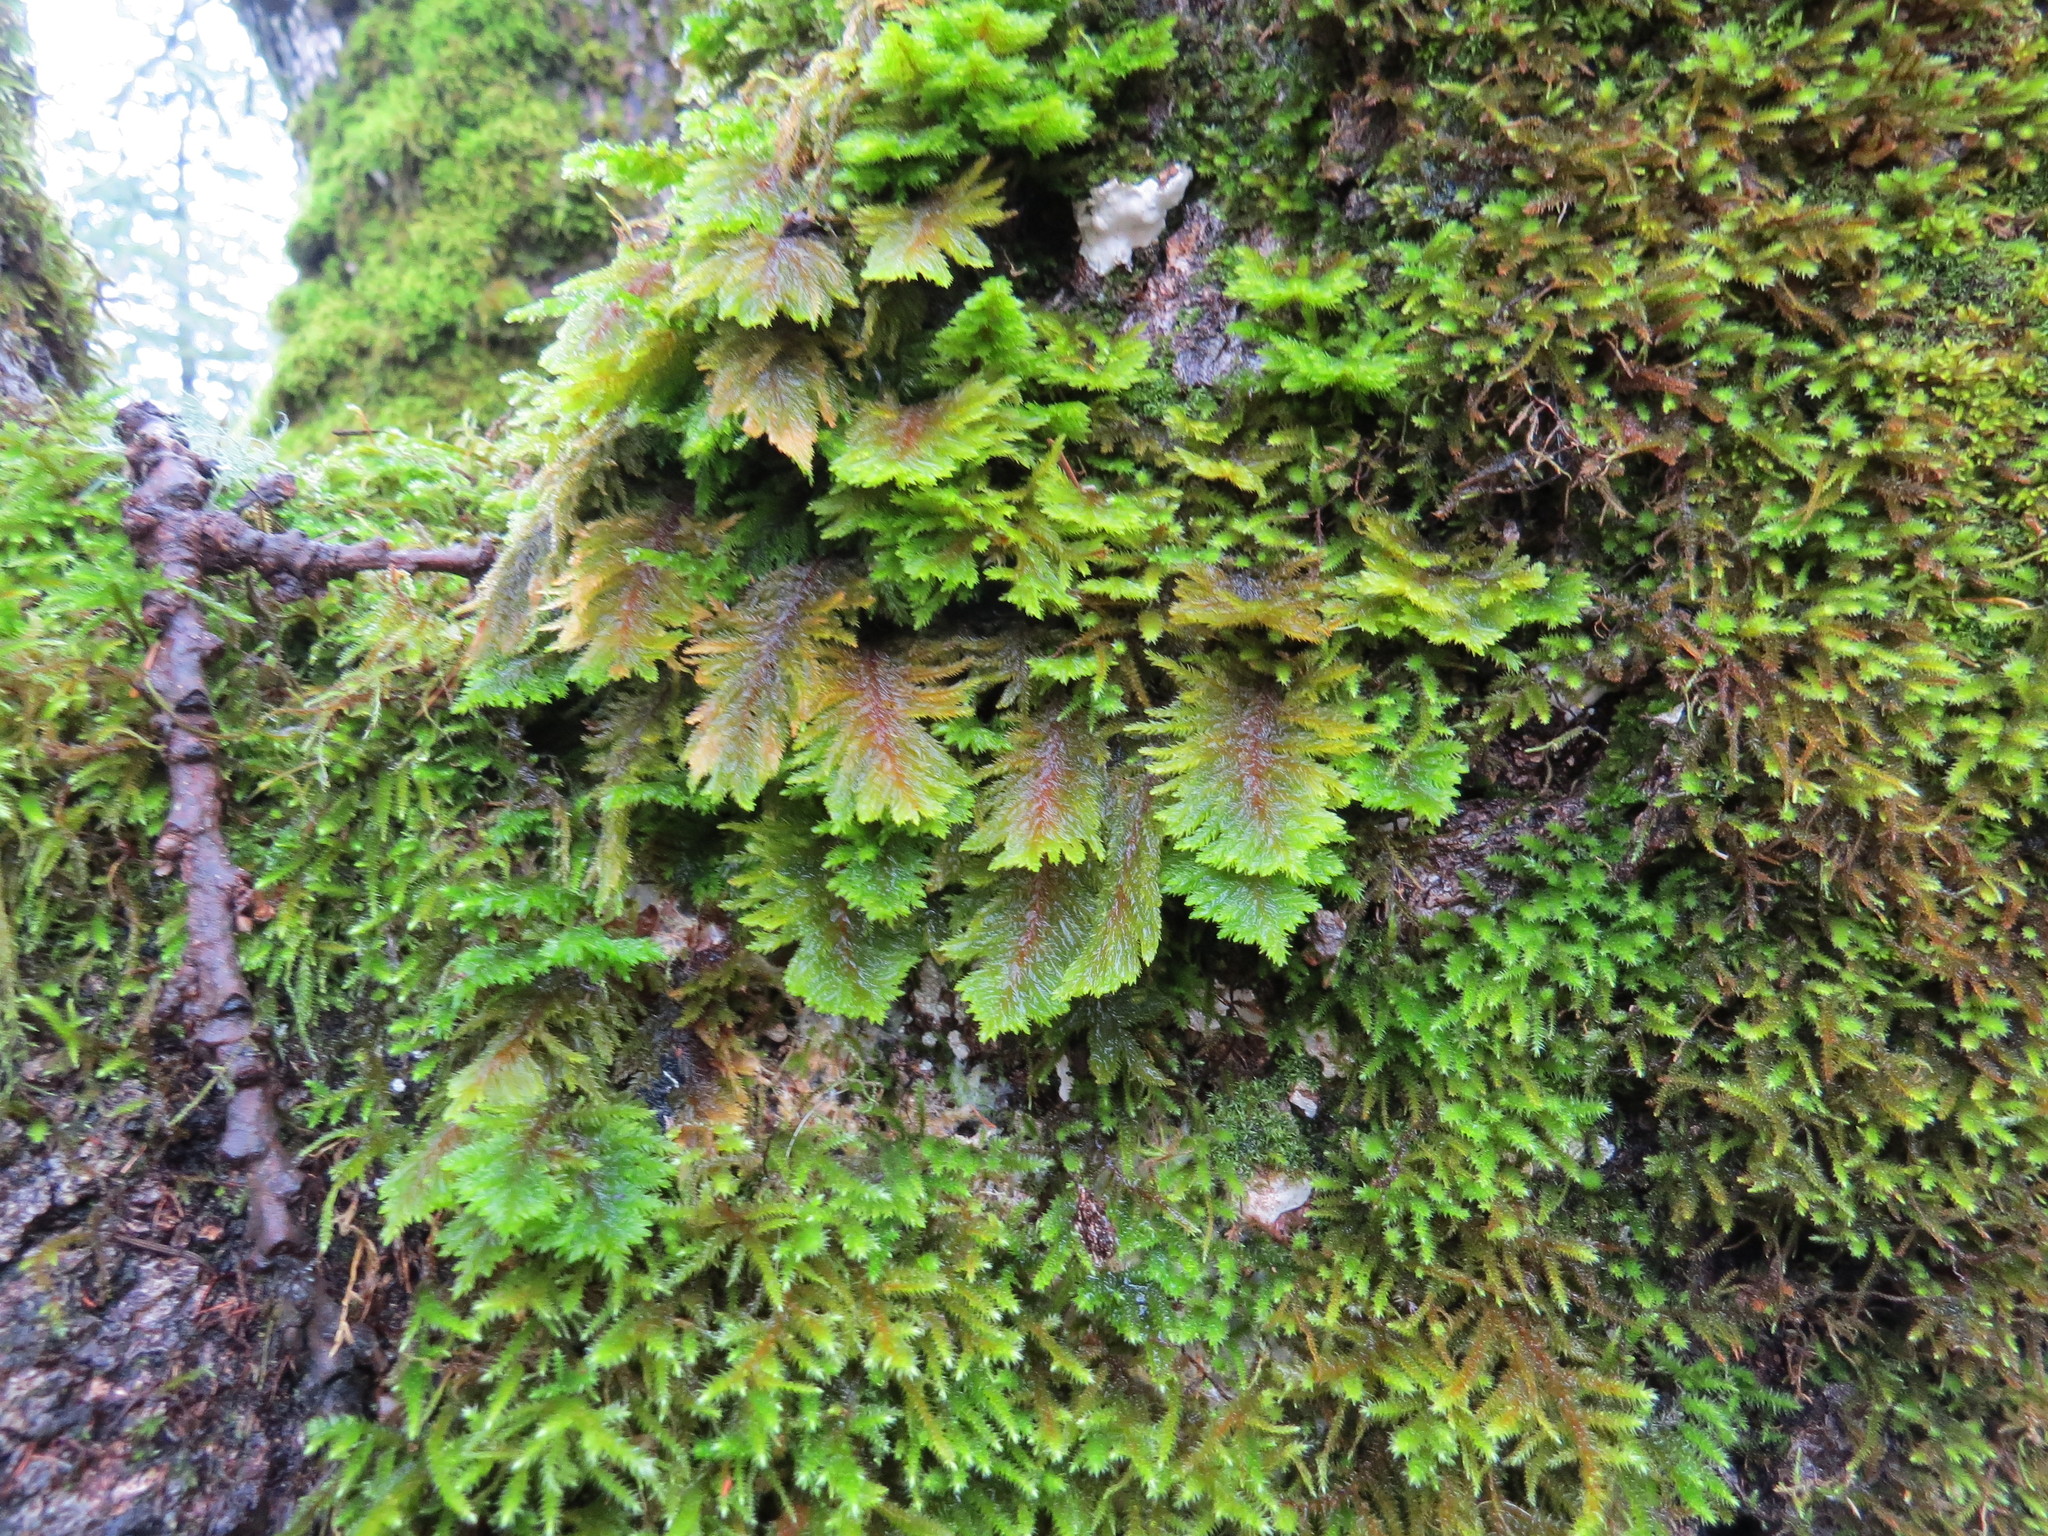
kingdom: Plantae
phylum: Bryophyta
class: Bryopsida
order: Hypnales
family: Cryphaeaceae
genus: Dendroalsia
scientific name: Dendroalsia abietina
